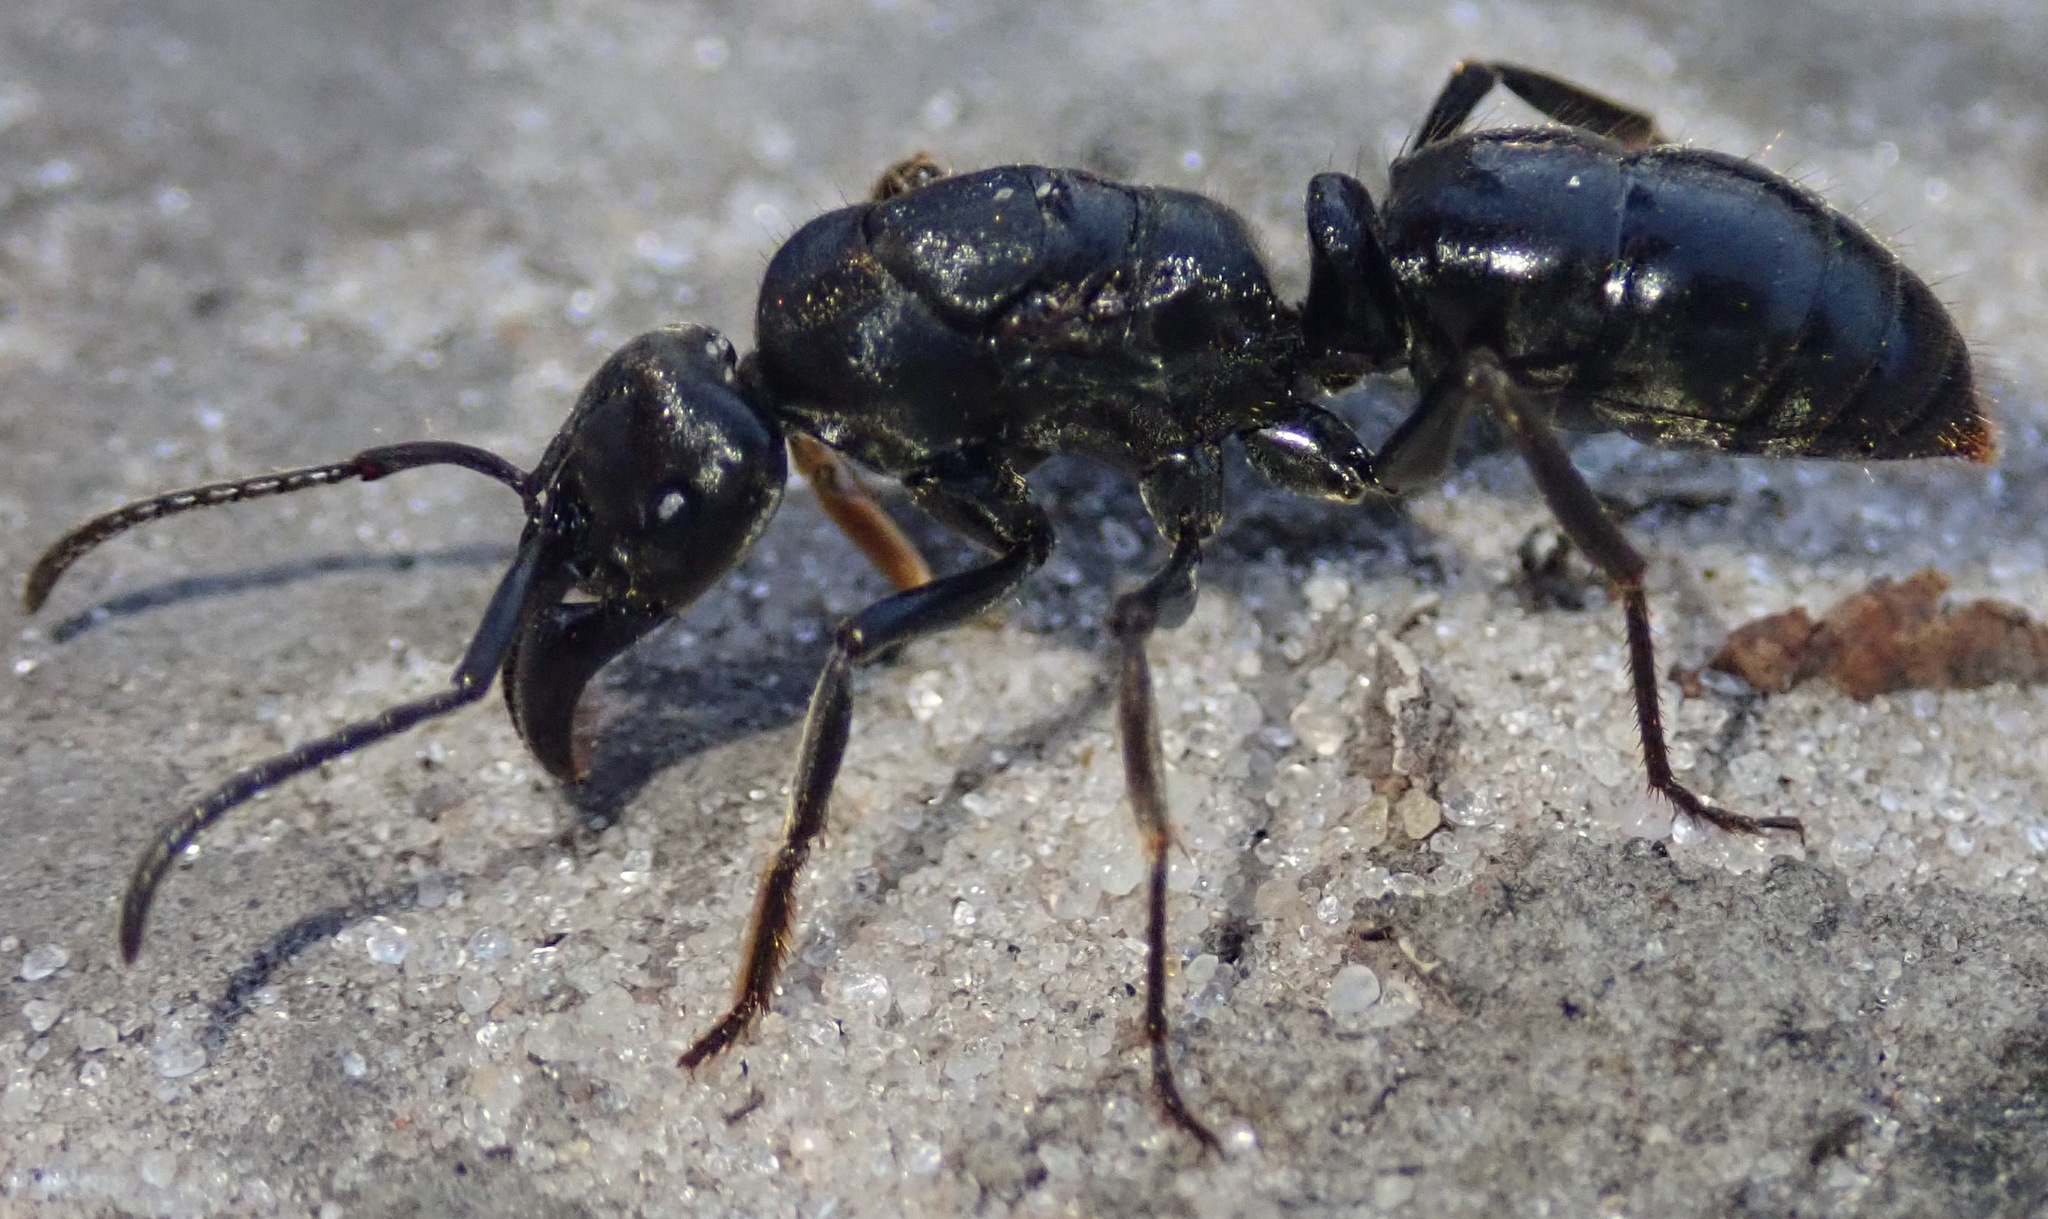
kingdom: Animalia
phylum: Arthropoda
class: Insecta
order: Hymenoptera
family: Formicidae
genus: Paltothyreus
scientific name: Paltothyreus tarsatus
